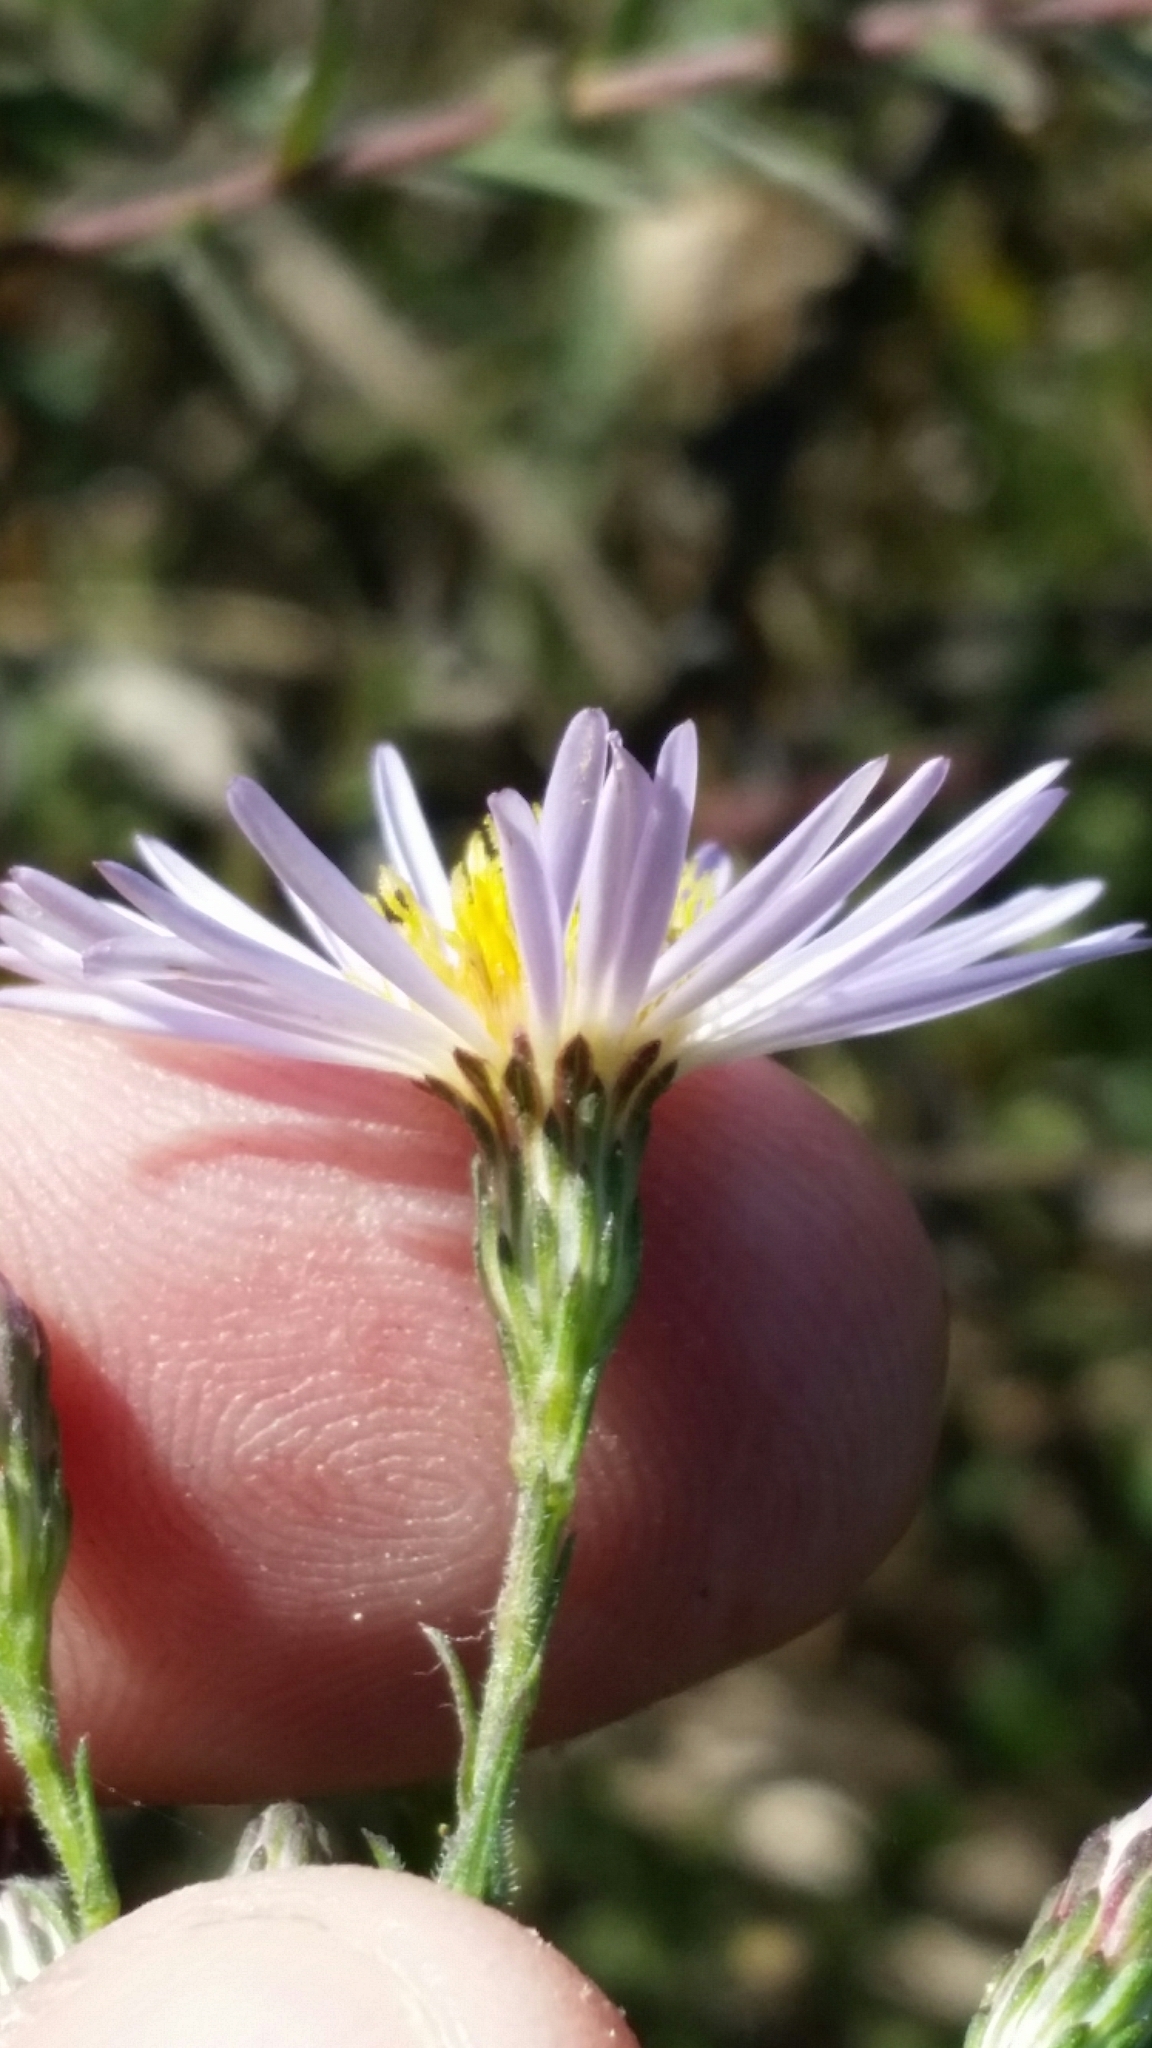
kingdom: Plantae
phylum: Tracheophyta
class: Magnoliopsida
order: Asterales
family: Asteraceae
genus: Symphyotrichum
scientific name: Symphyotrichum fontinale
